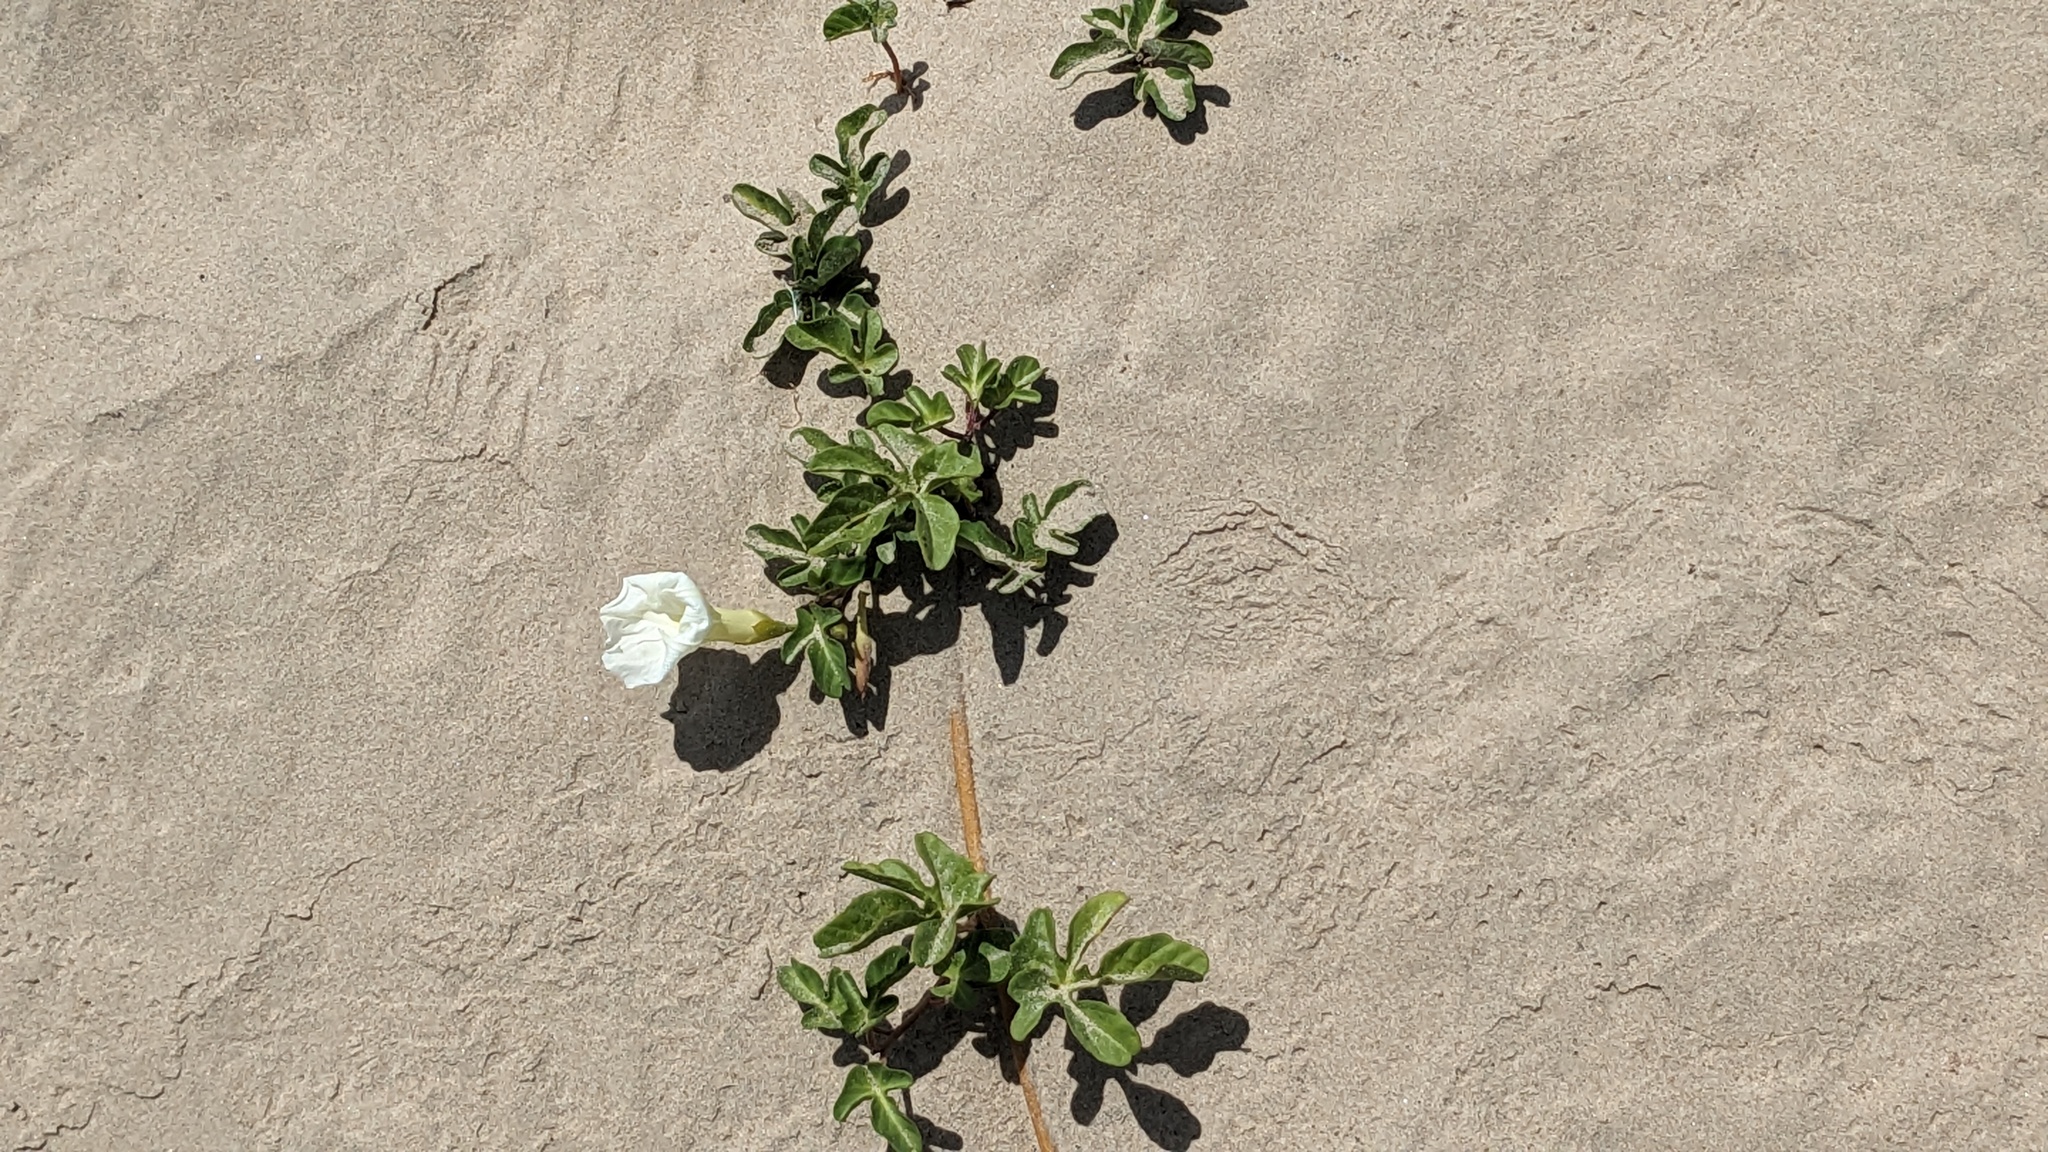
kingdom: Plantae
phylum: Tracheophyta
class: Magnoliopsida
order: Solanales
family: Convolvulaceae
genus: Ipomoea
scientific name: Ipomoea imperati
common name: Fiddle-leaf morning-glory
